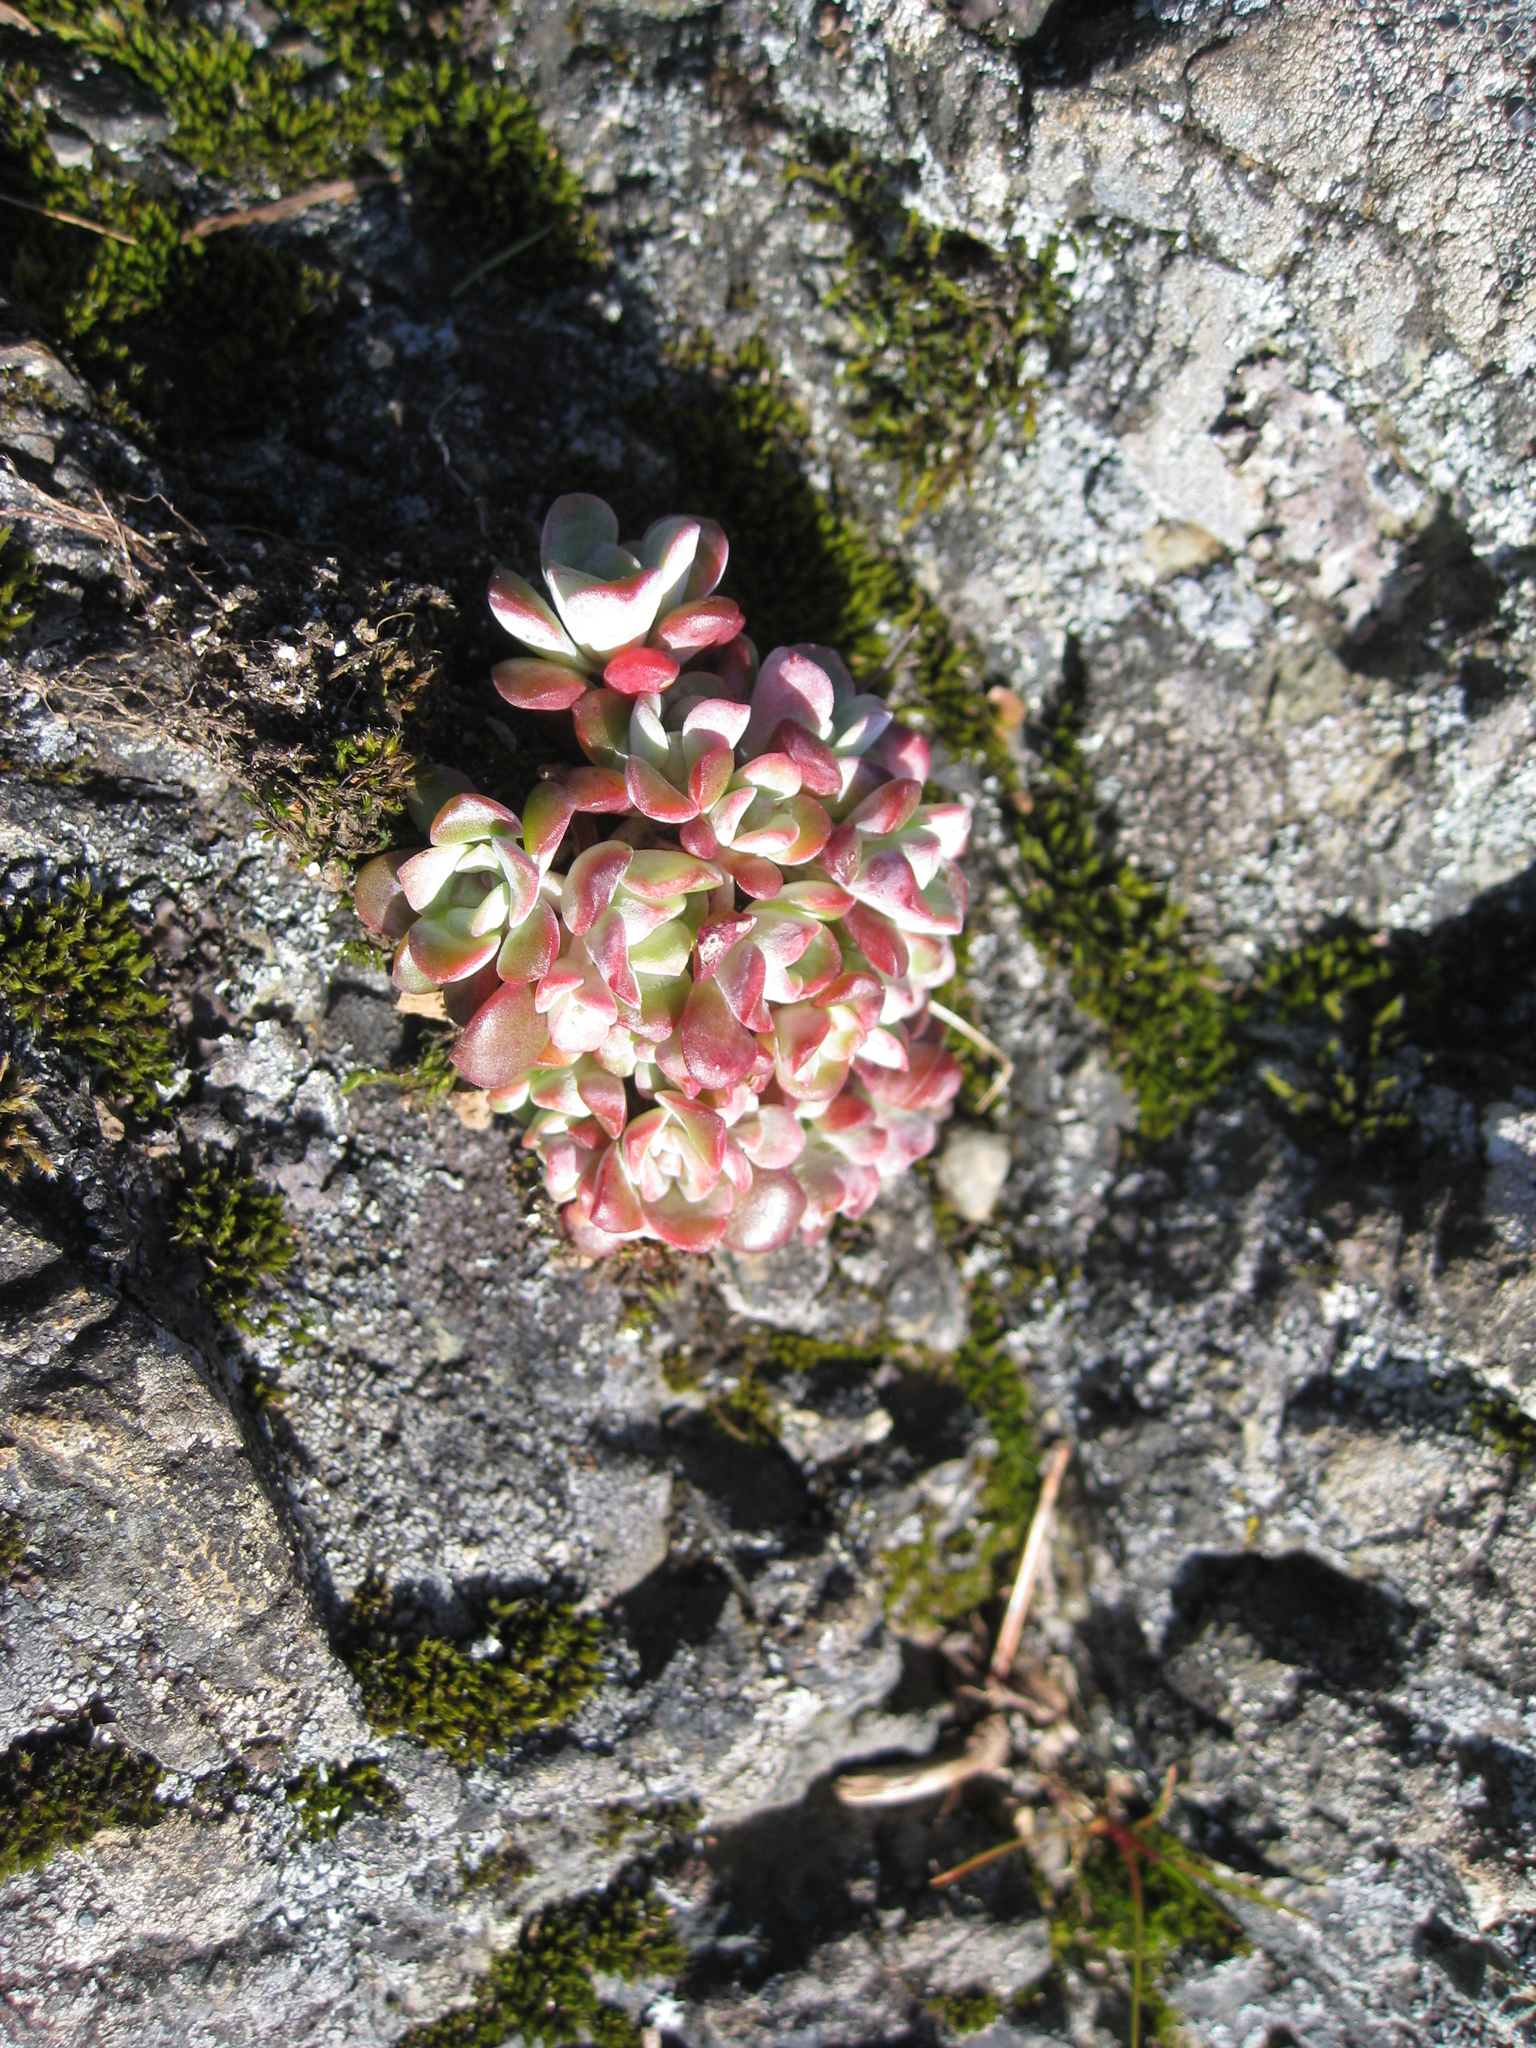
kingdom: Plantae
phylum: Tracheophyta
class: Magnoliopsida
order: Saxifragales
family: Crassulaceae
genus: Sedum
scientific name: Sedum spathulifolium
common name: Colorado stonecrop
